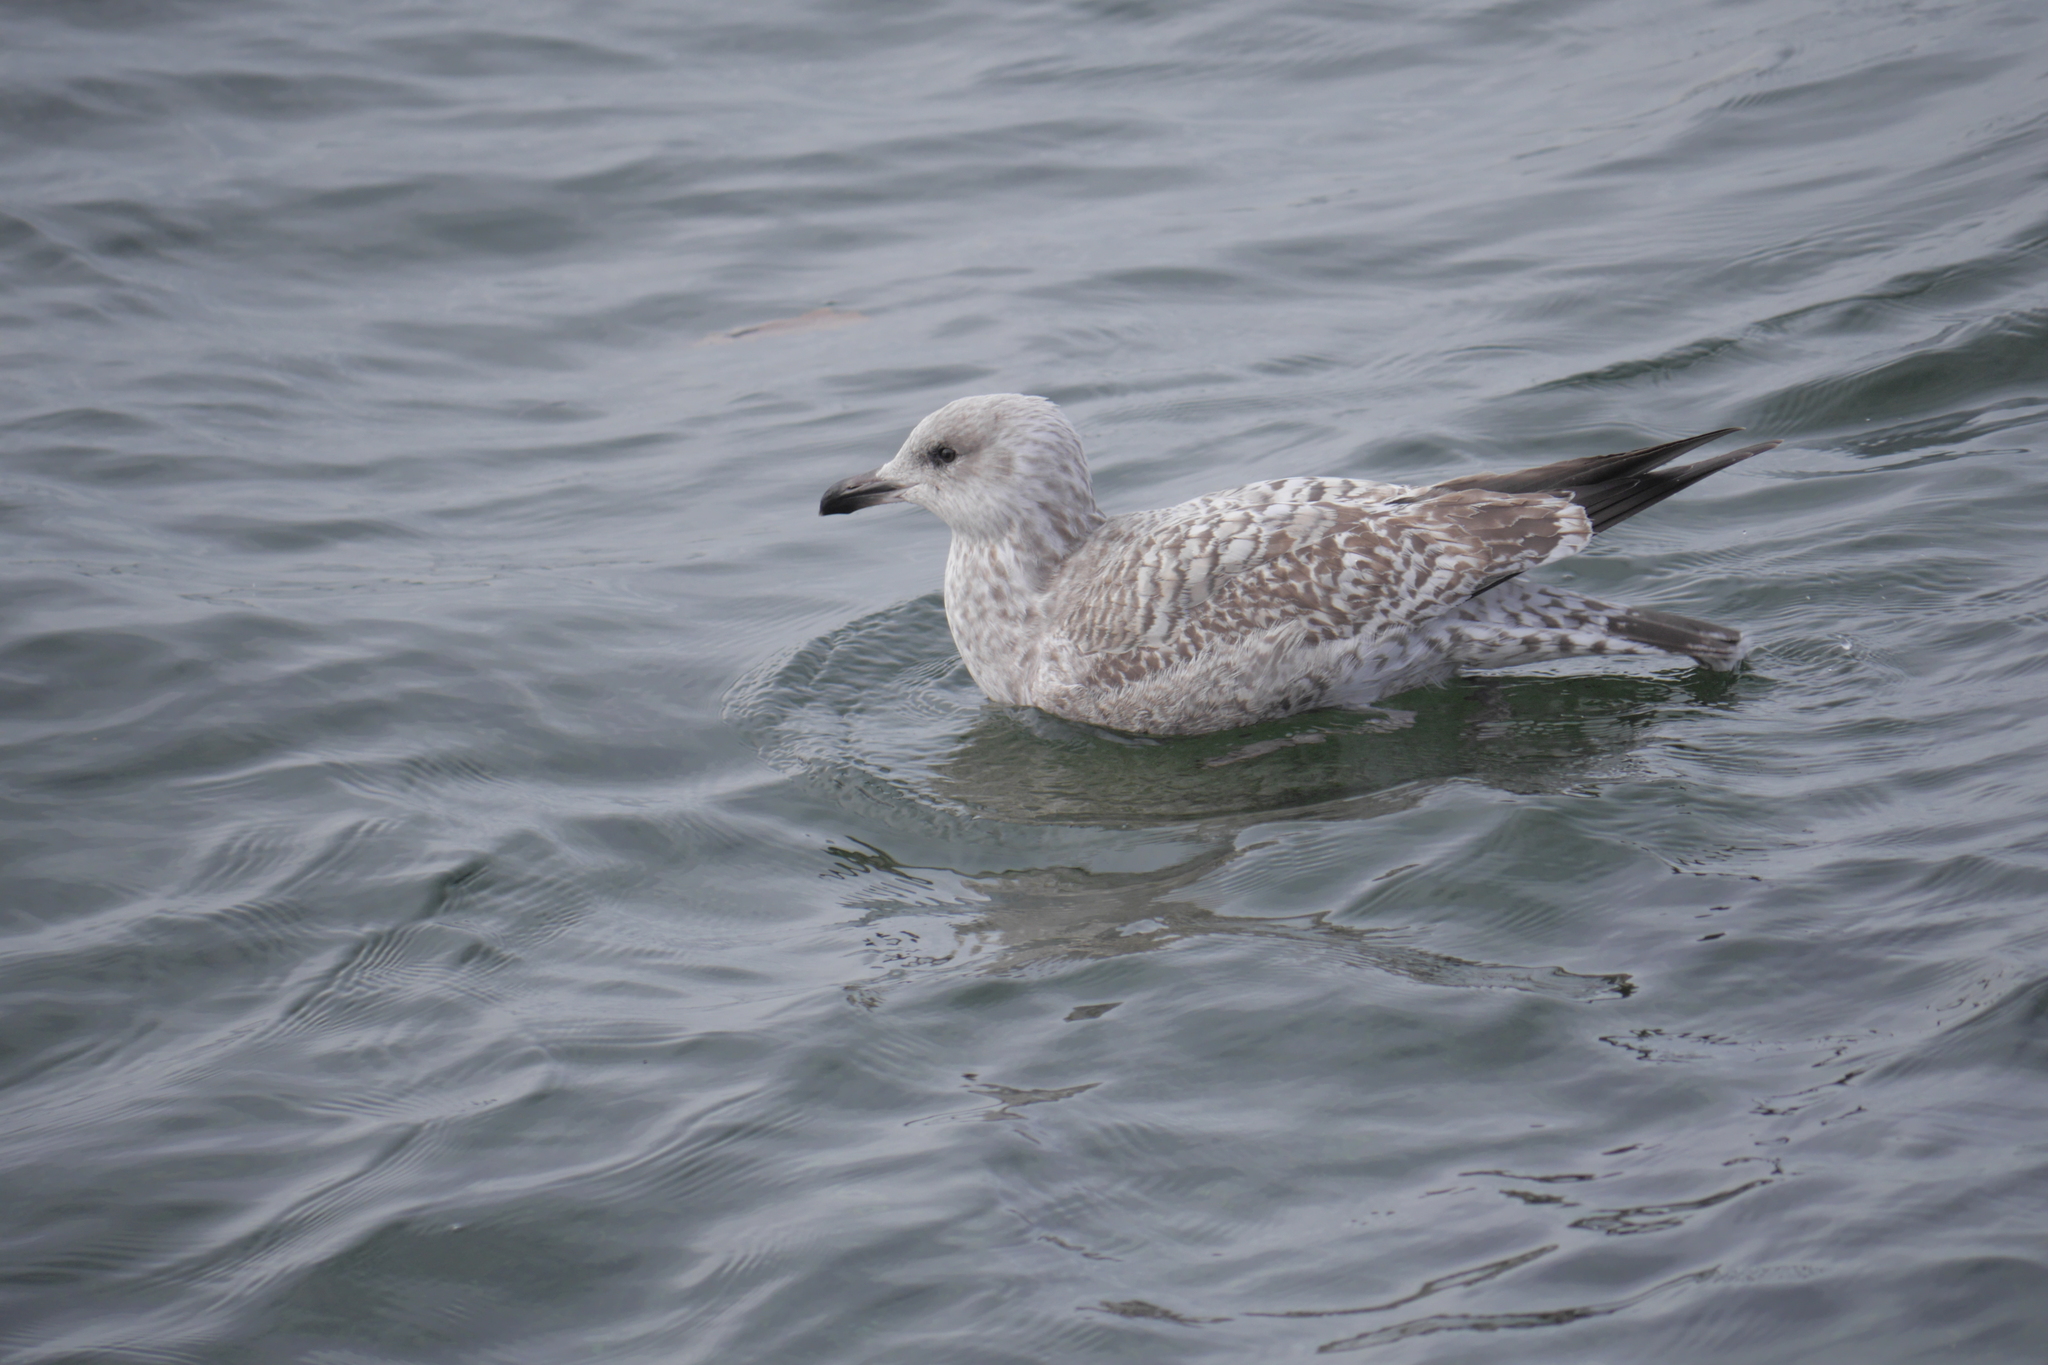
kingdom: Animalia
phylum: Chordata
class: Aves
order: Charadriiformes
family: Laridae
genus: Larus
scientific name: Larus argentatus
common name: Herring gull
